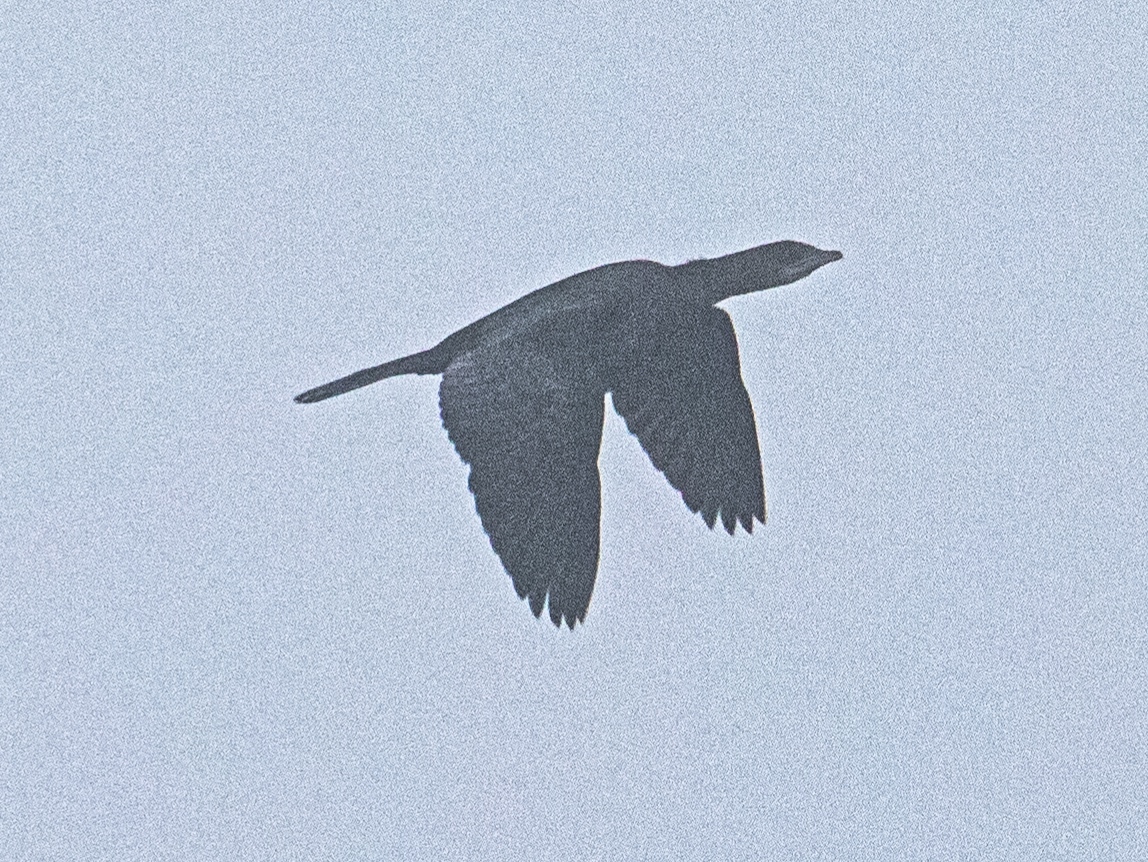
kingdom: Animalia
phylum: Chordata
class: Aves
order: Suliformes
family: Phalacrocoracidae
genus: Microcarbo
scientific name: Microcarbo pygmaeus
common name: Pygmy cormorant
